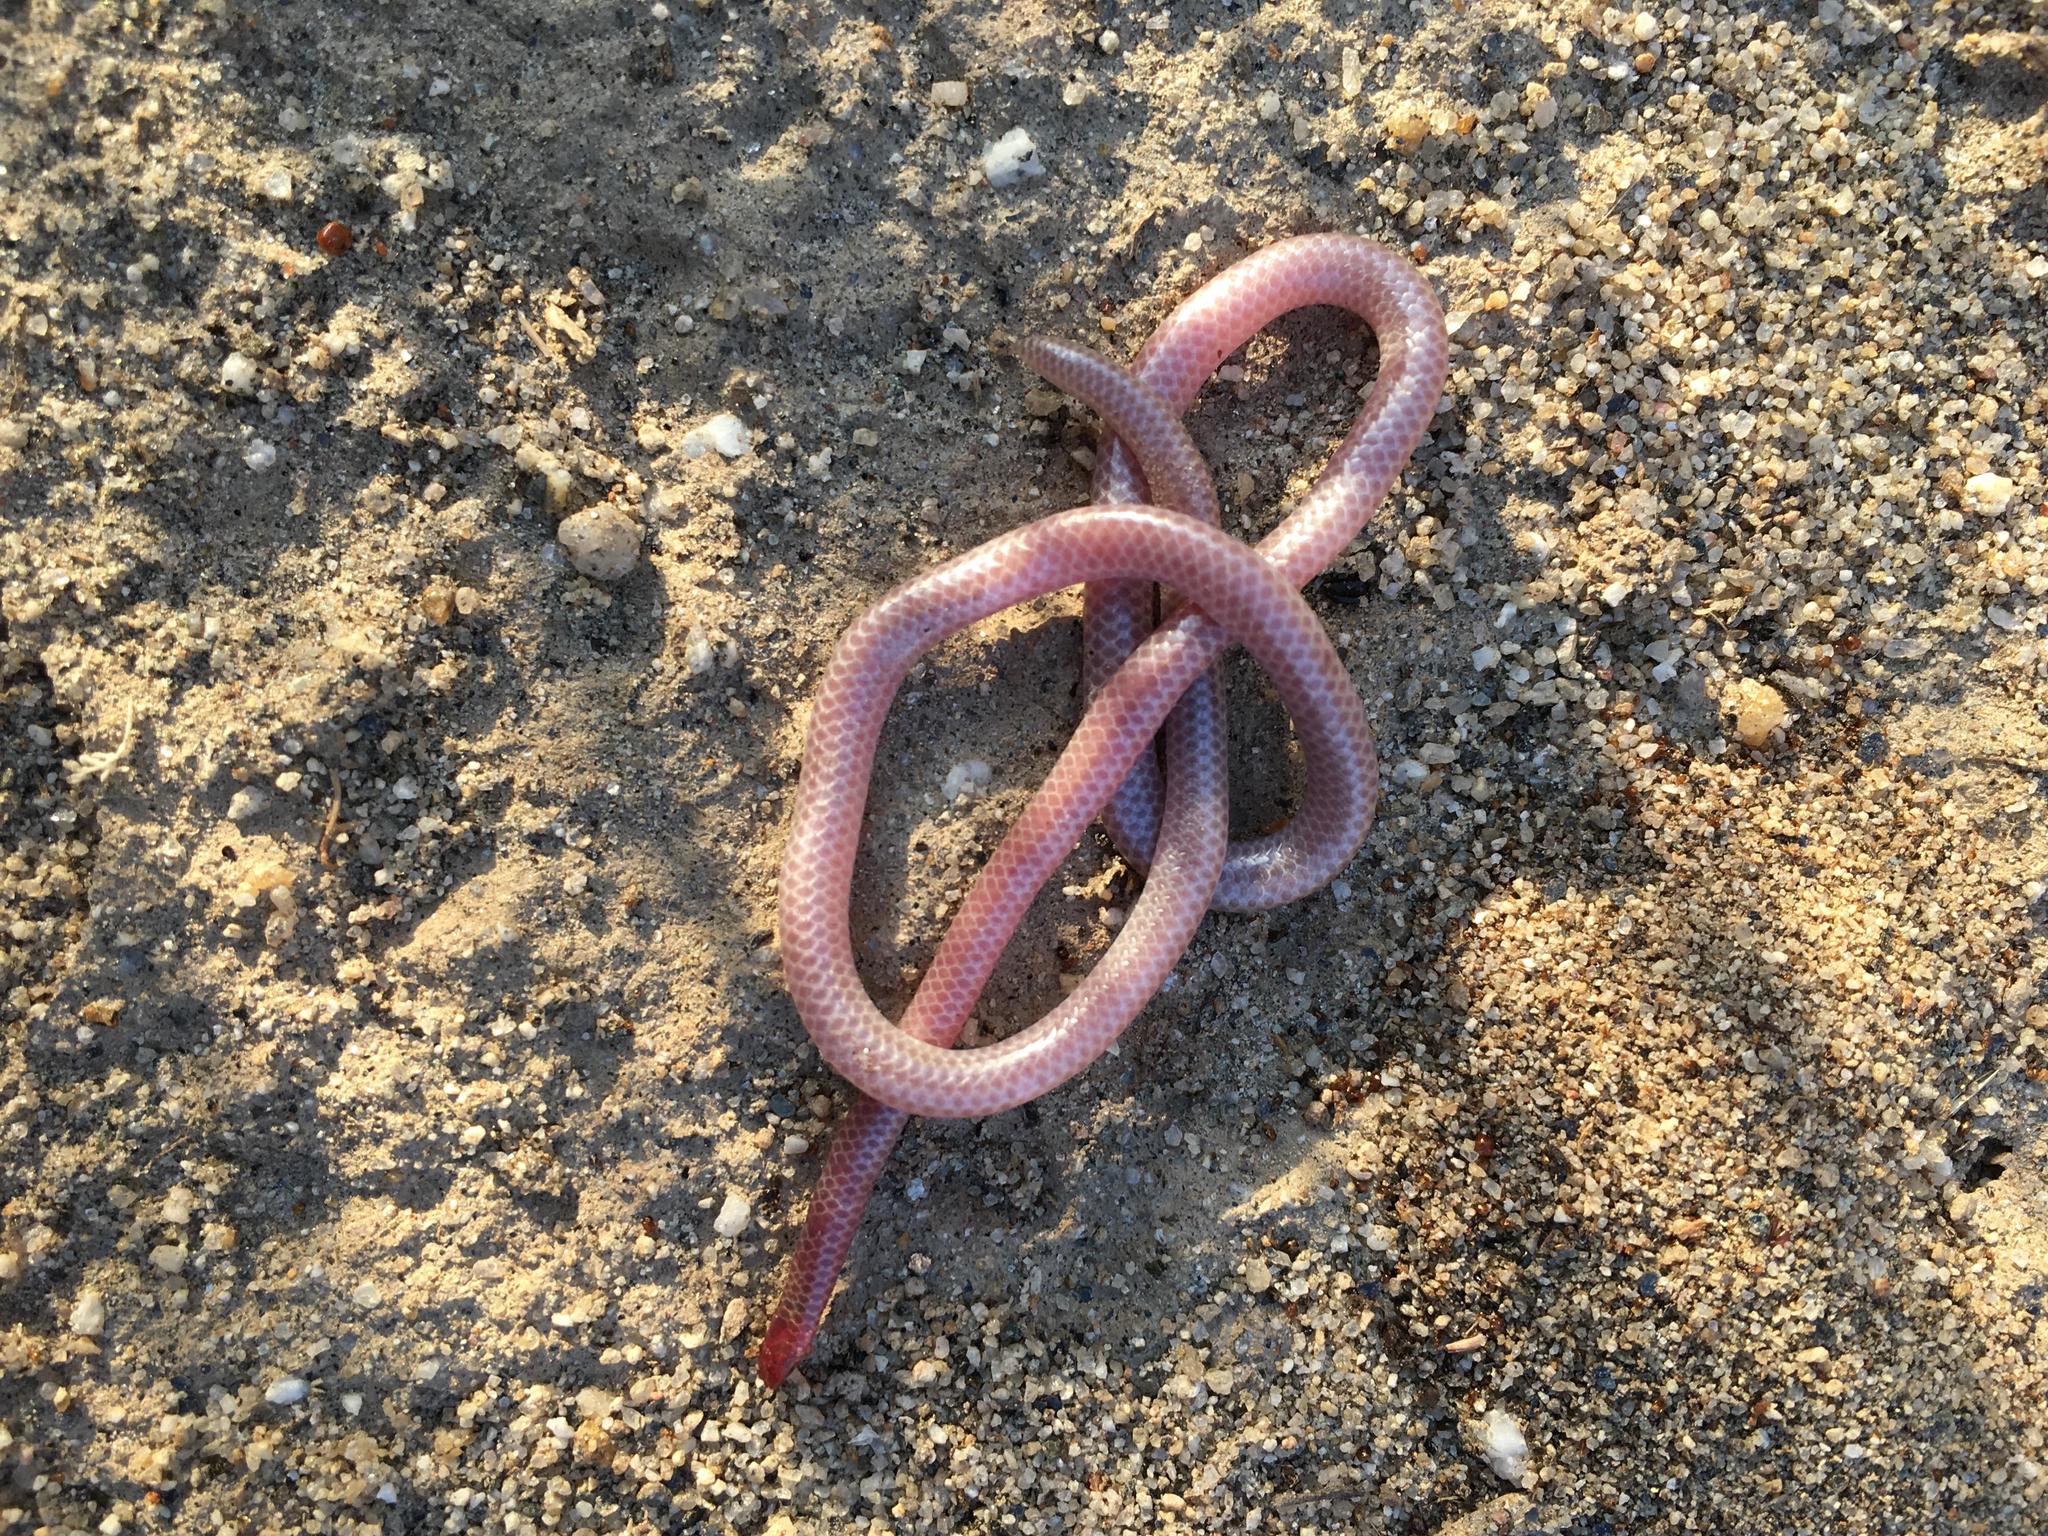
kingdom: Animalia
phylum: Chordata
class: Squamata
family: Leptotyphlopidae
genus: Rena
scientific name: Rena humilis
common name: Western threadsnake
